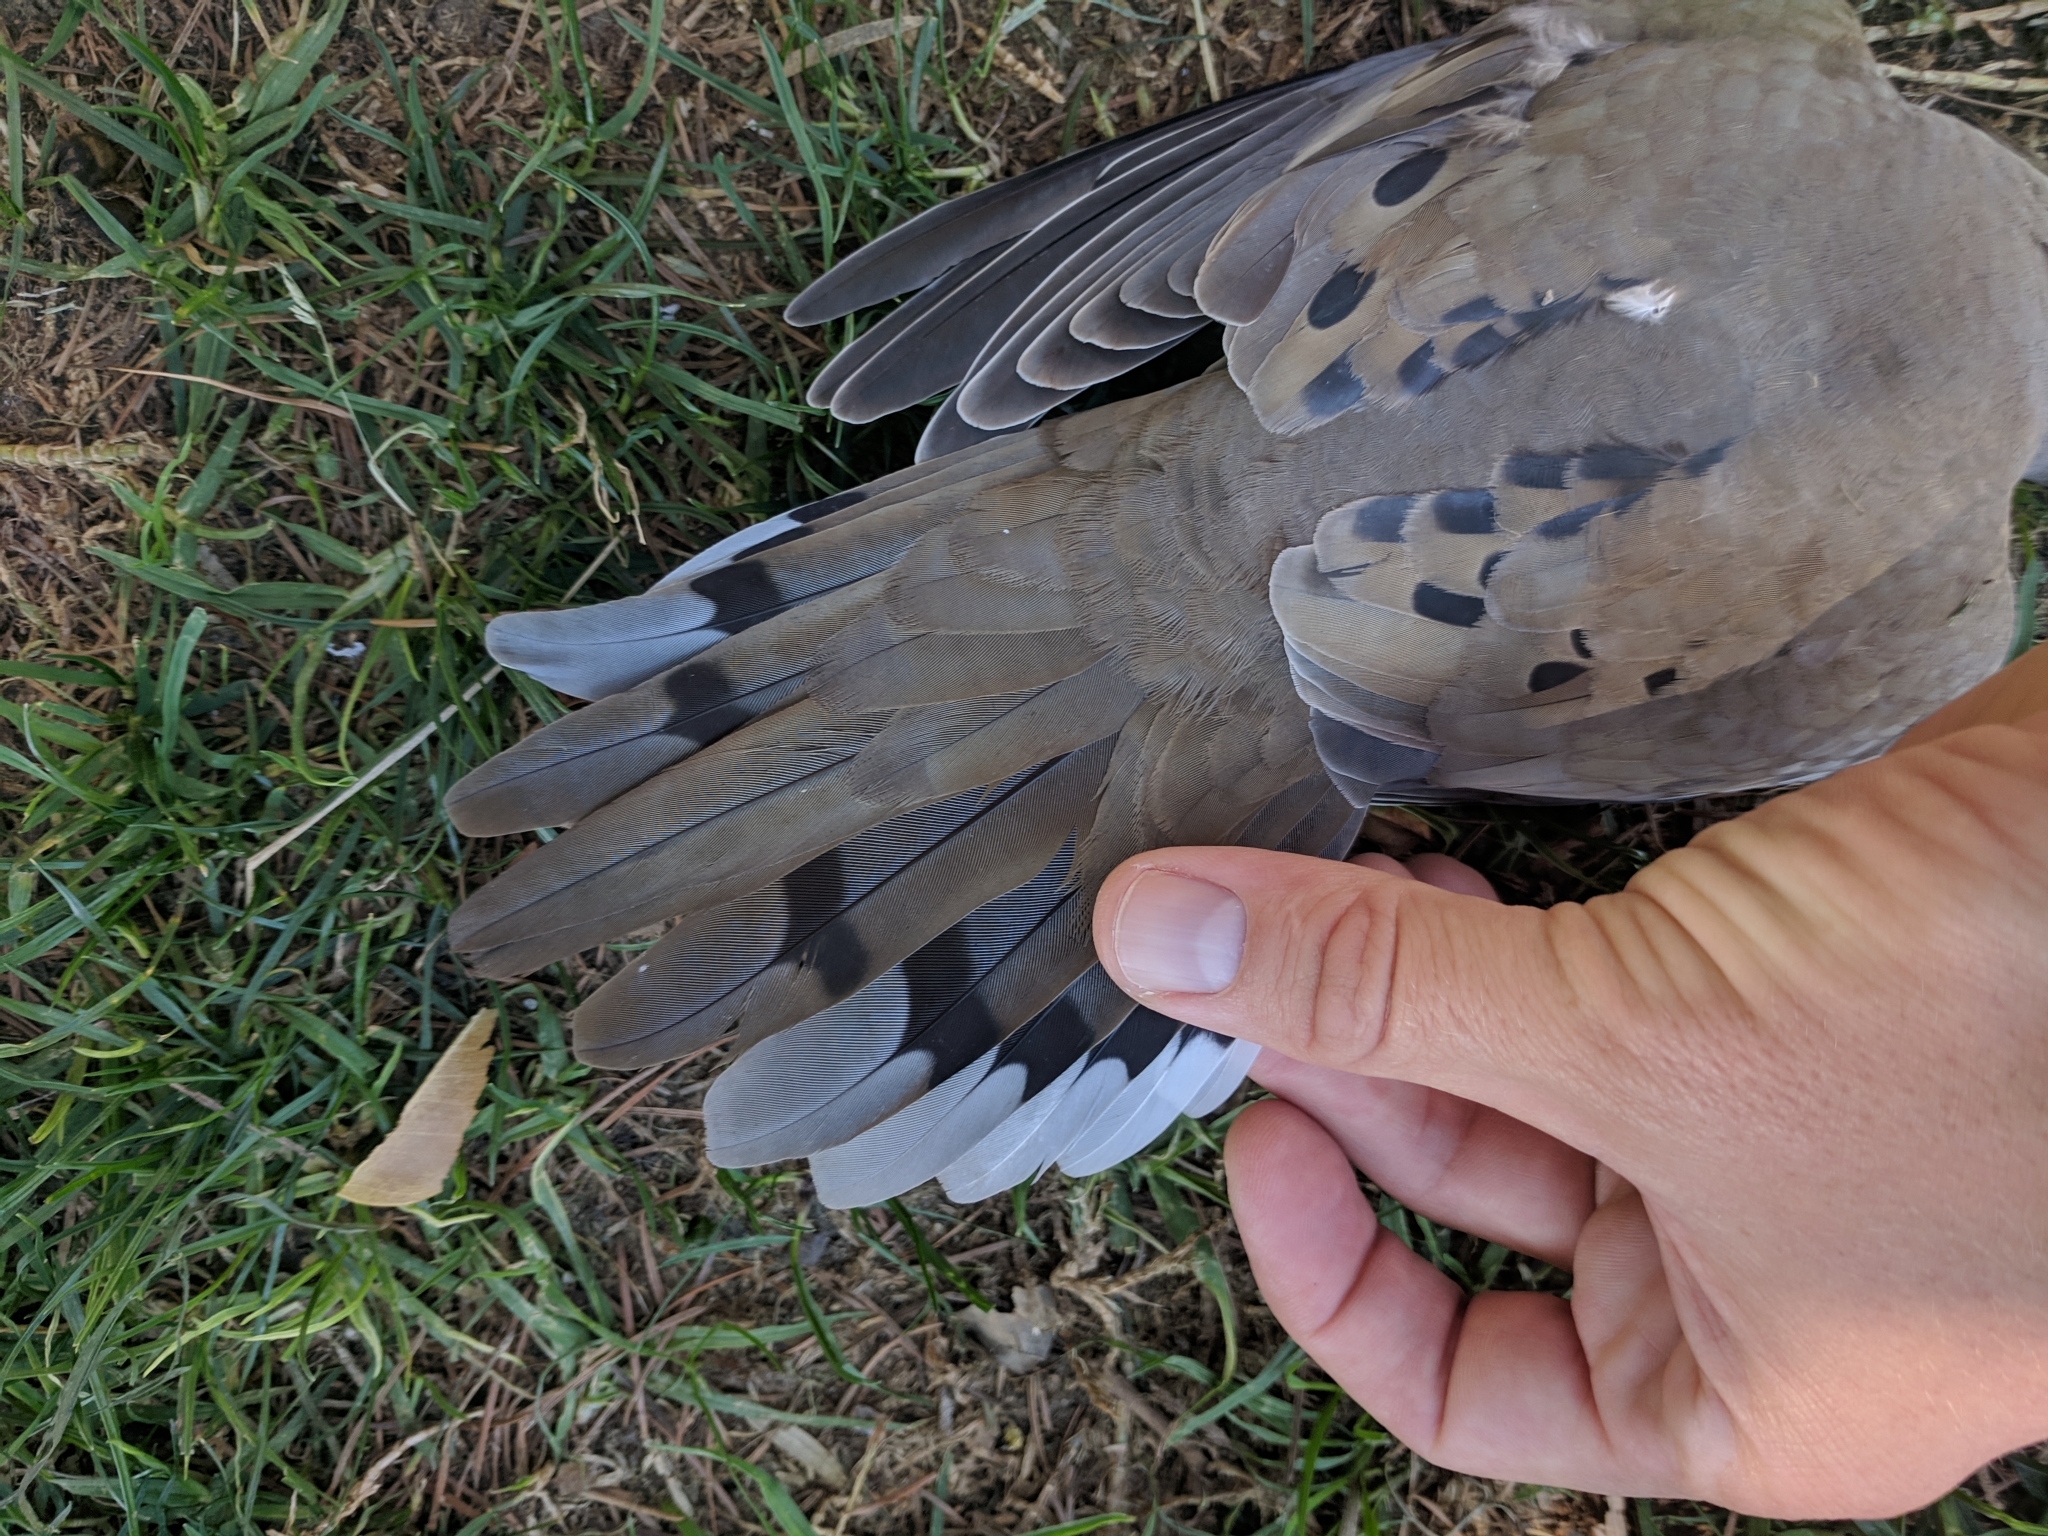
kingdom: Animalia
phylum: Chordata
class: Aves
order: Columbiformes
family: Columbidae
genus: Zenaida
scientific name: Zenaida macroura
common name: Mourning dove
